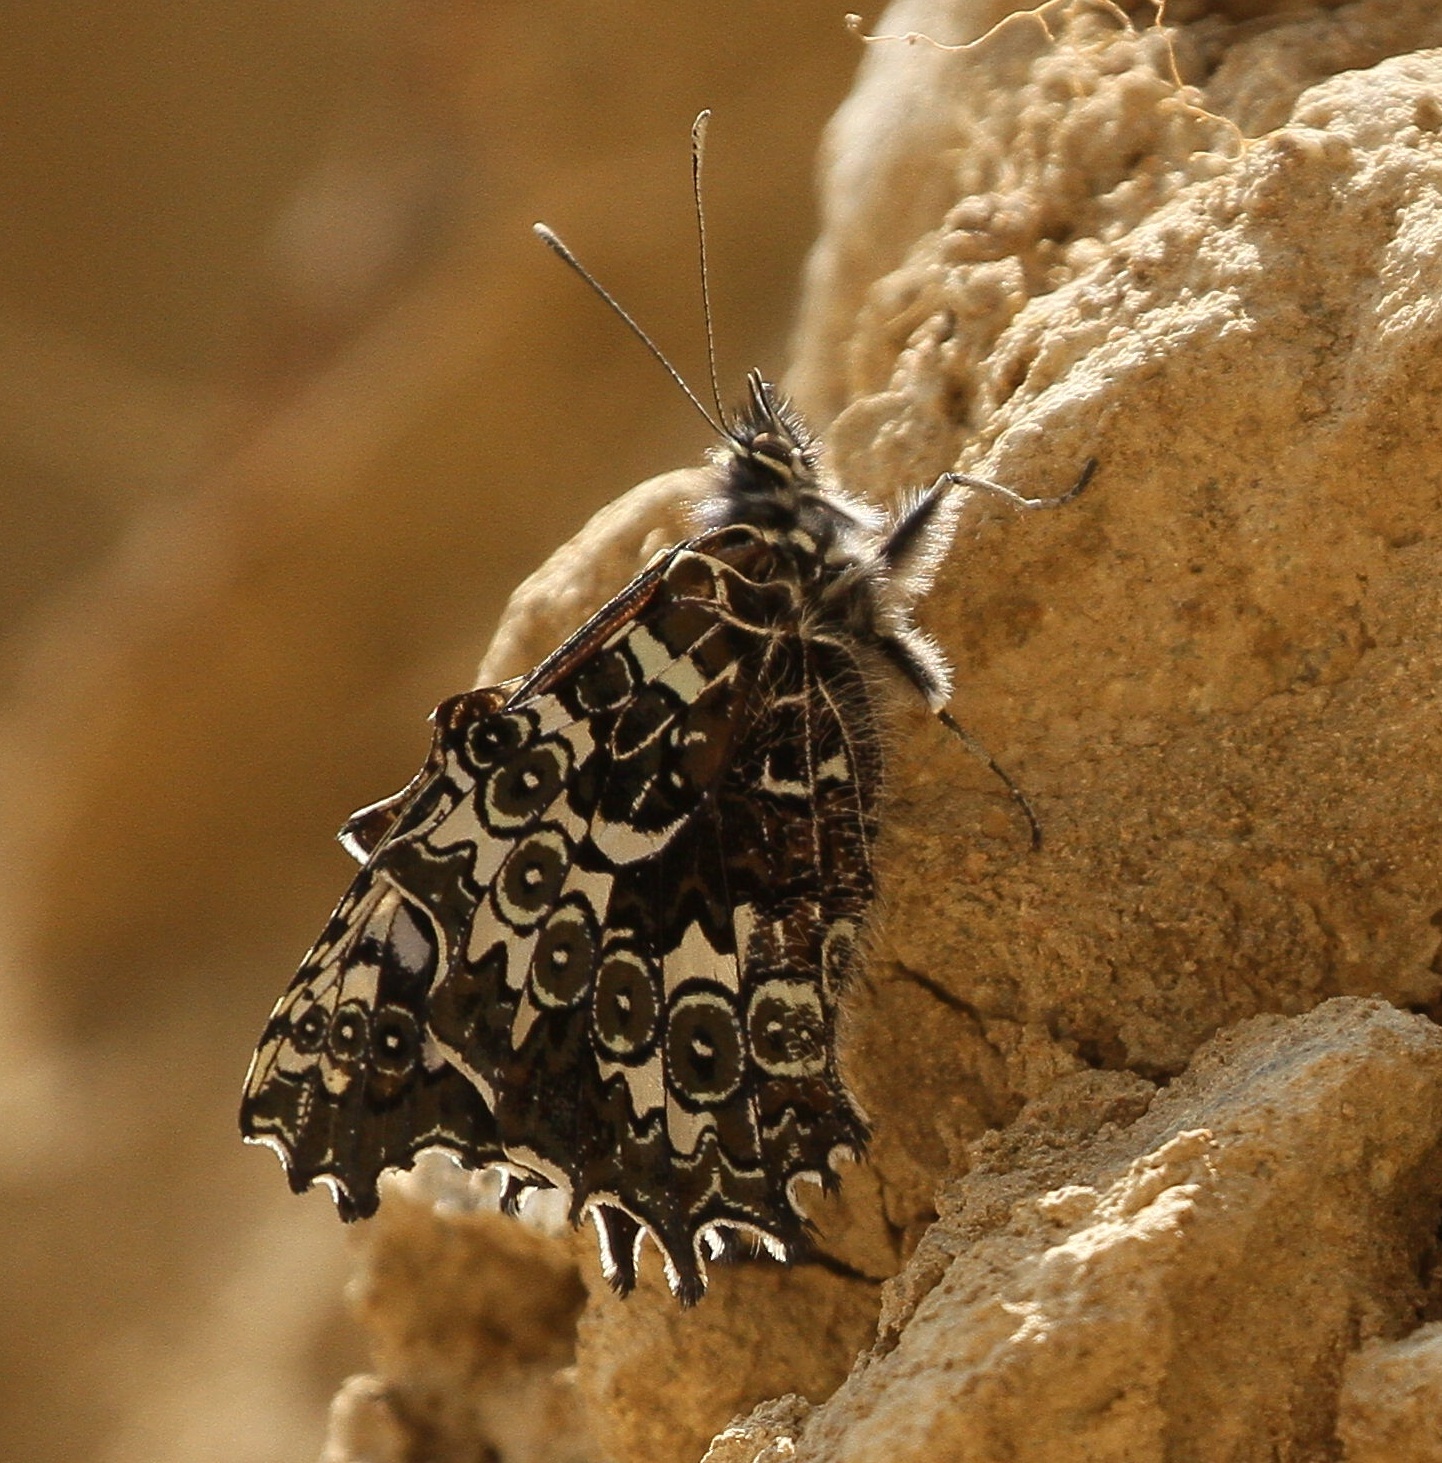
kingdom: Animalia
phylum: Arthropoda
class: Insecta
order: Lepidoptera
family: Nymphalidae
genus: Junea
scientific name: Junea doraete
